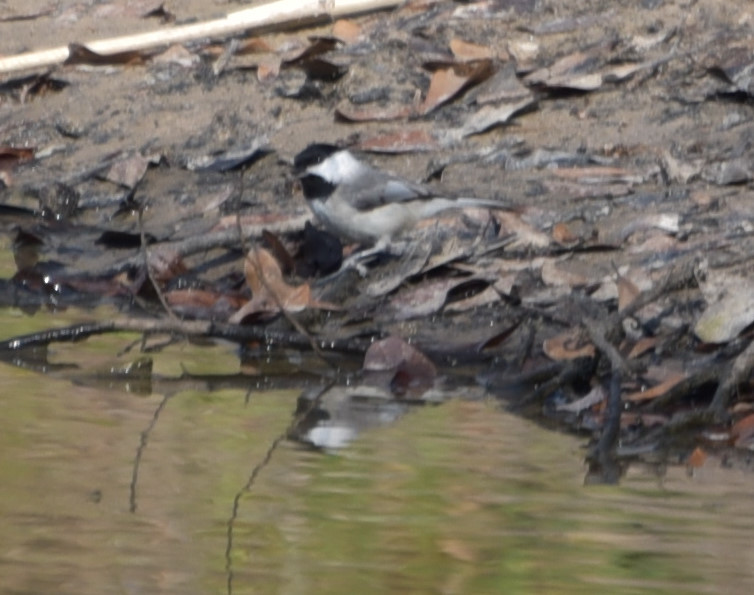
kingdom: Animalia
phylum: Chordata
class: Aves
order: Passeriformes
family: Paridae
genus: Poecile
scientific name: Poecile carolinensis
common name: Carolina chickadee
